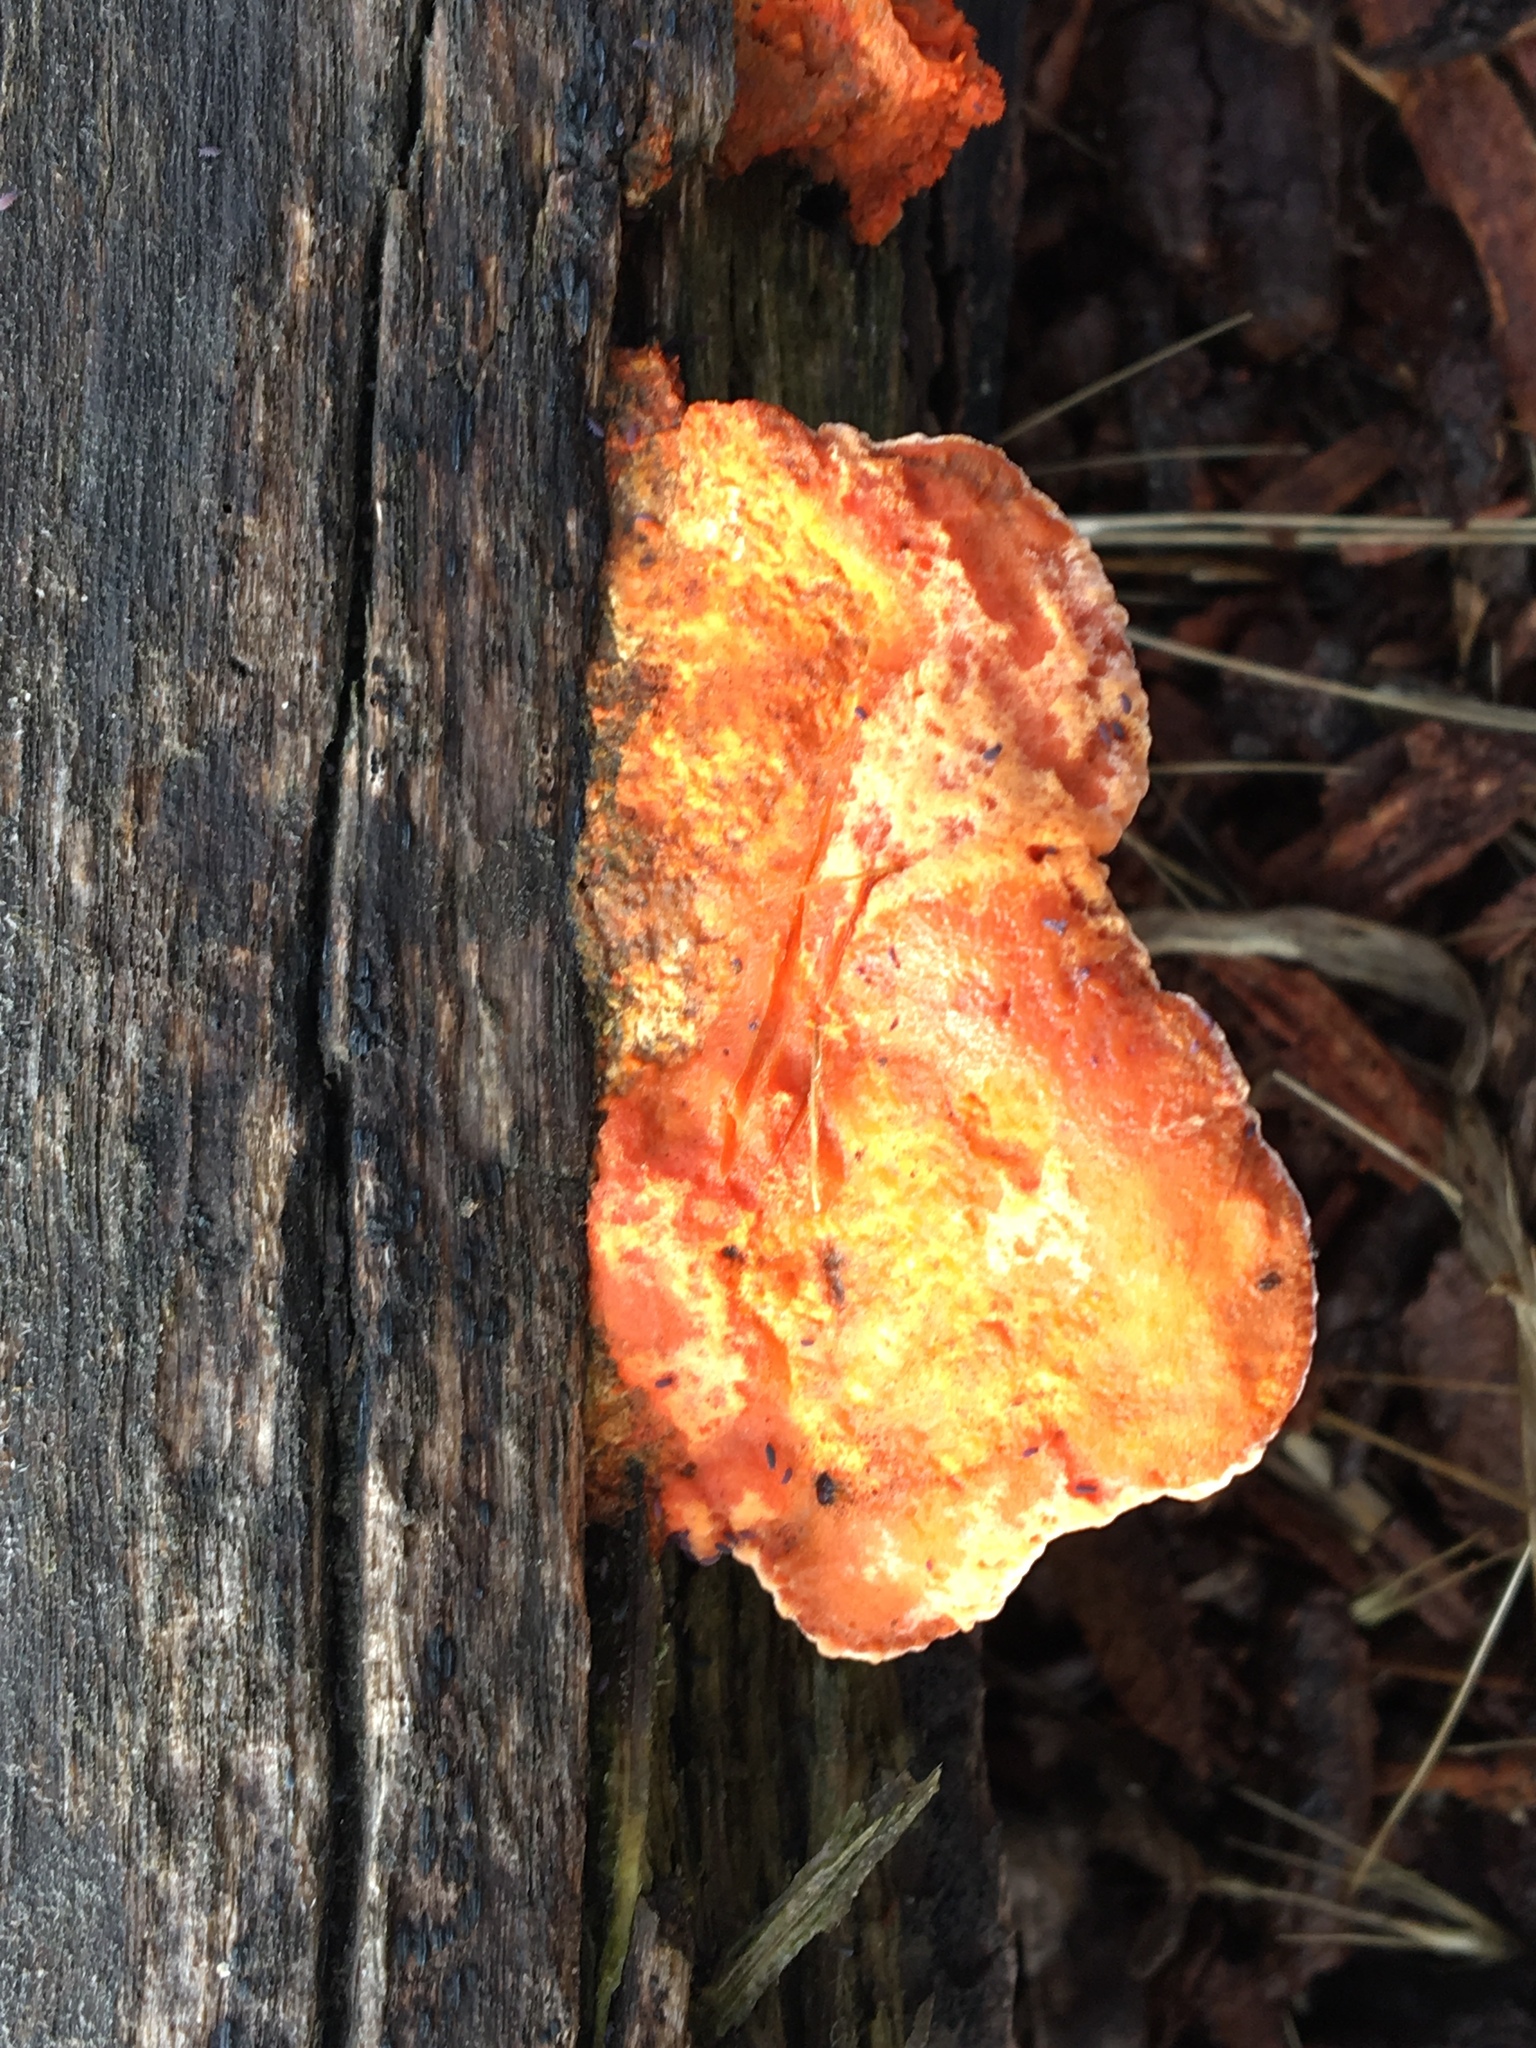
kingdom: Fungi
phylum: Basidiomycota
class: Agaricomycetes
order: Polyporales
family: Polyporaceae
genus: Trametes
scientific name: Trametes coccinea
